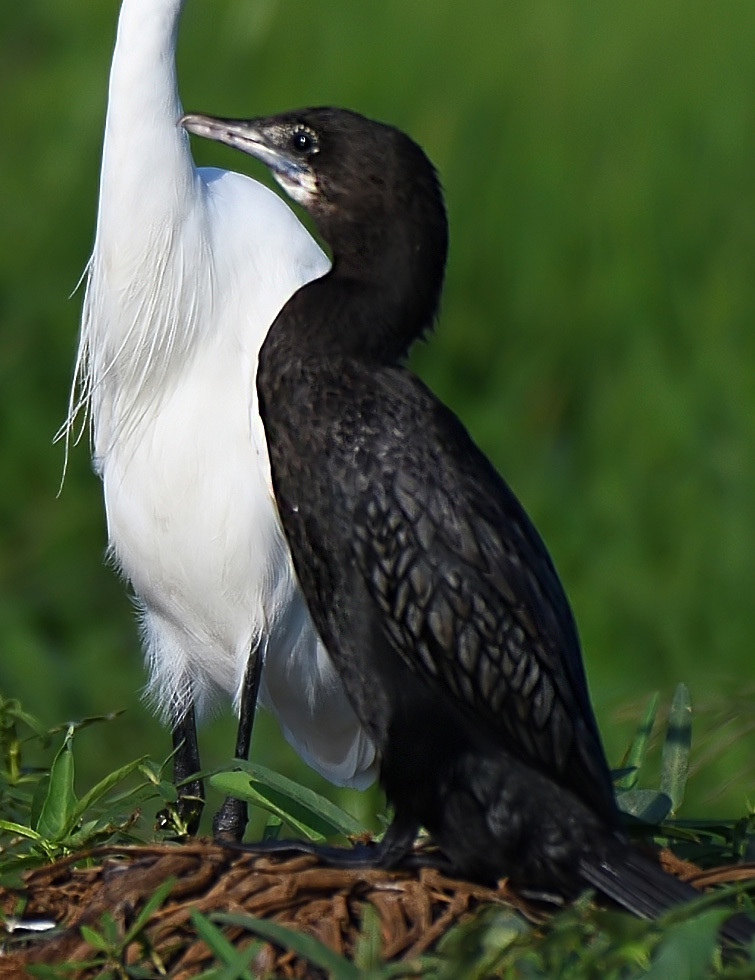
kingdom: Animalia
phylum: Chordata
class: Aves
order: Suliformes
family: Phalacrocoracidae
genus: Microcarbo
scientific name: Microcarbo niger
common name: Little cormorant
